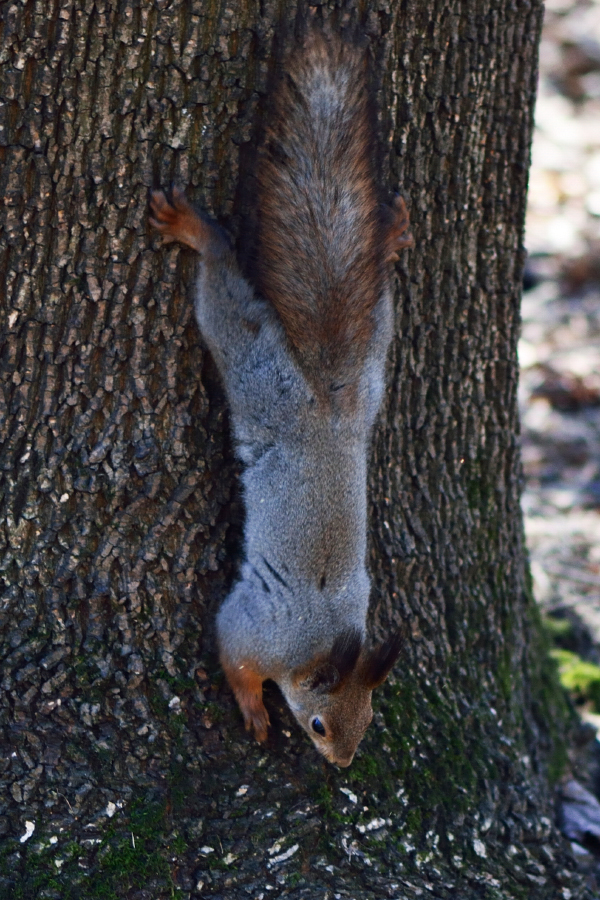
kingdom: Animalia
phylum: Chordata
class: Mammalia
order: Rodentia
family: Sciuridae
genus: Sciurus
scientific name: Sciurus vulgaris
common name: Eurasian red squirrel
